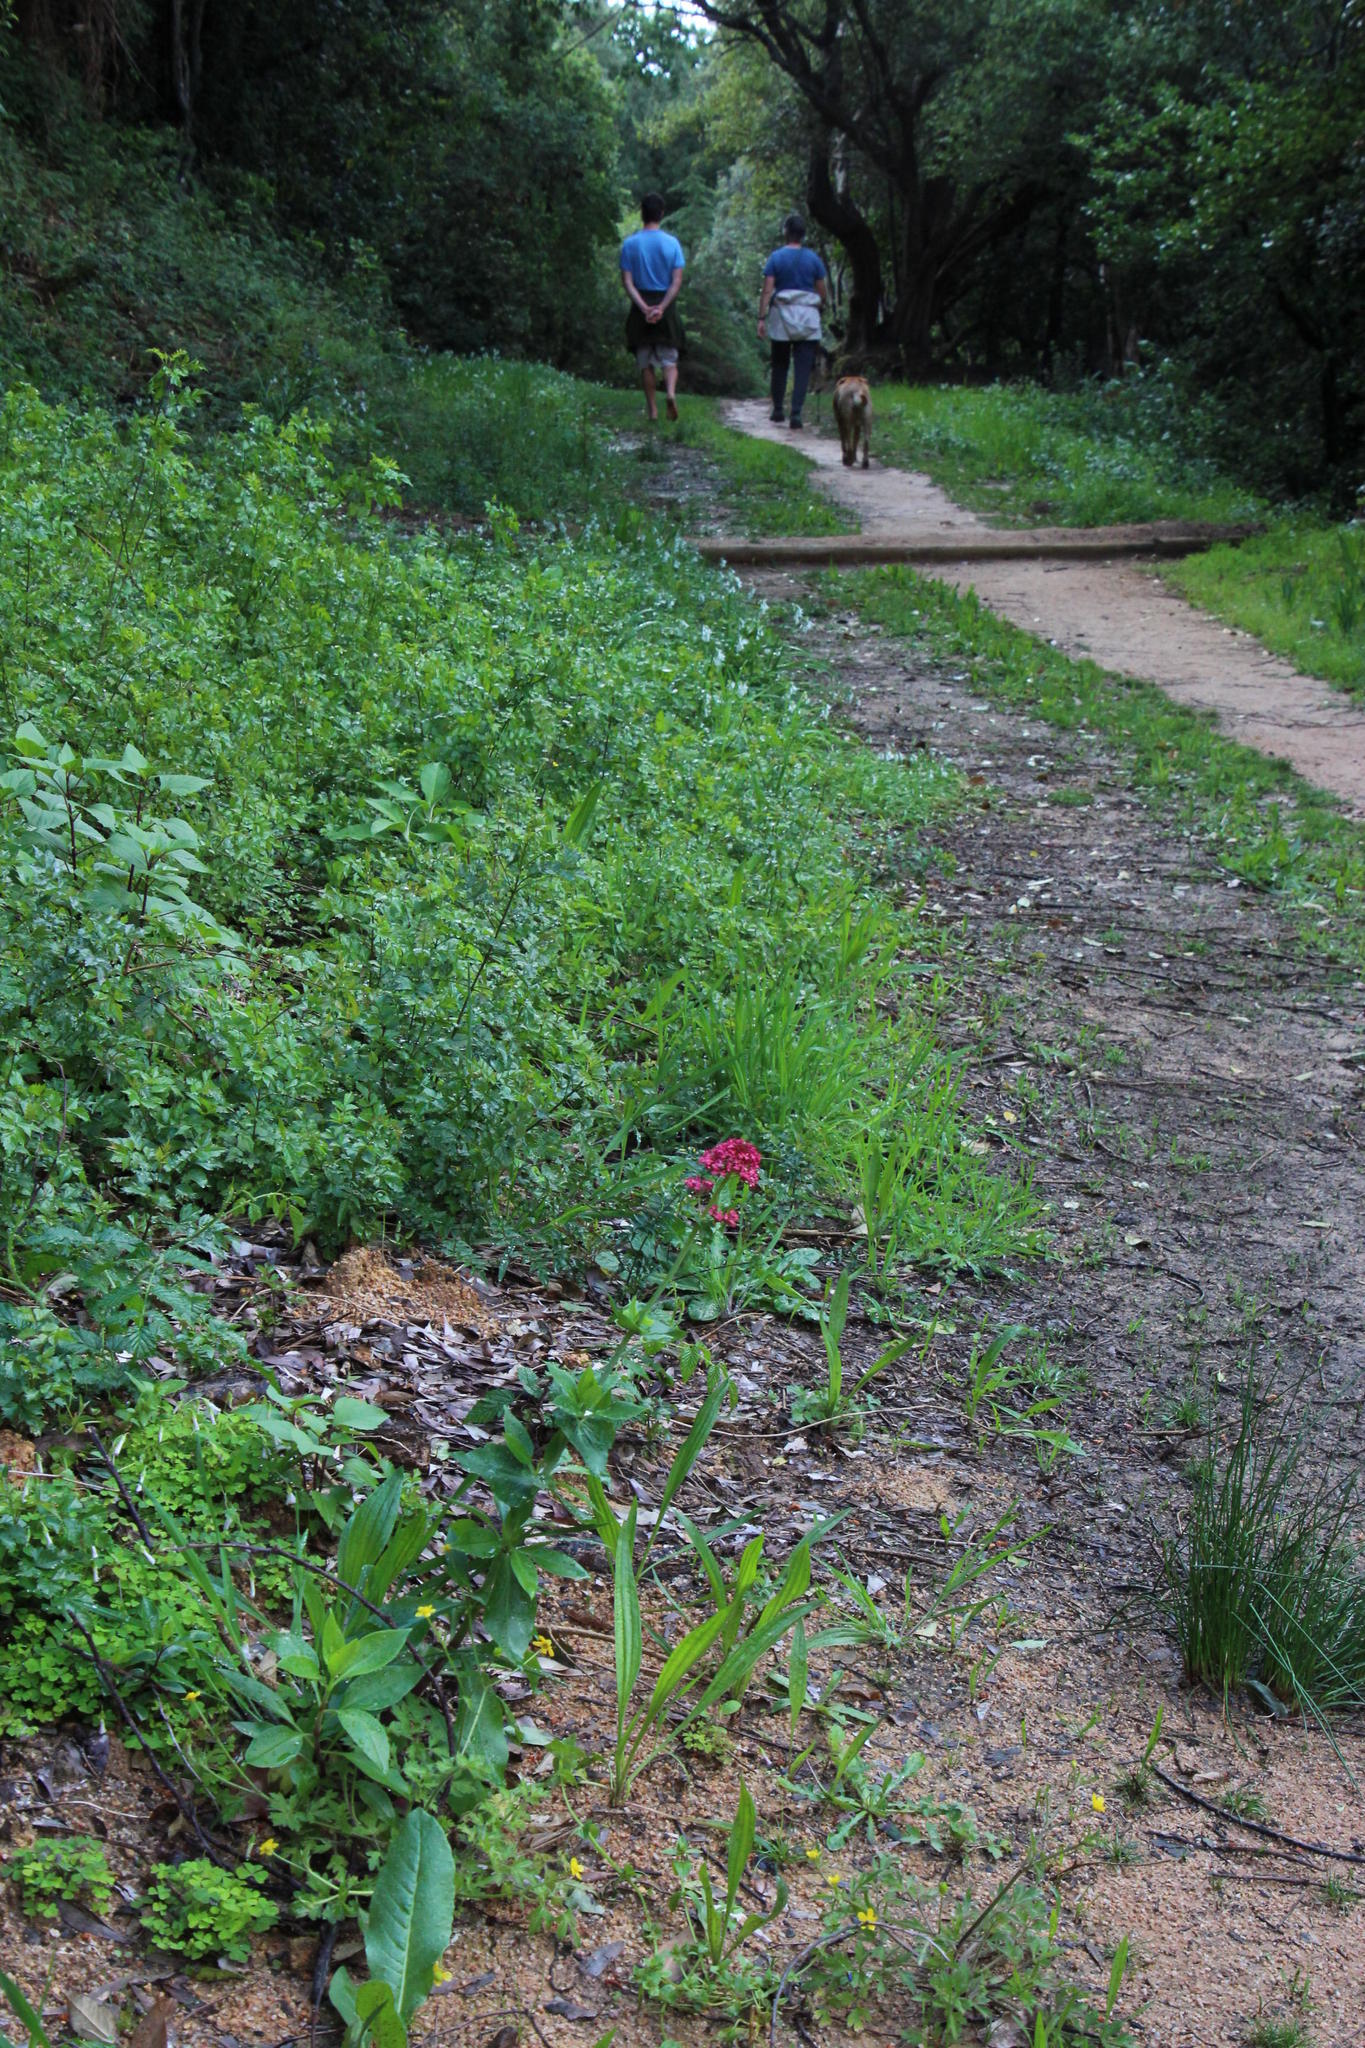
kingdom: Plantae
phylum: Tracheophyta
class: Magnoliopsida
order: Dipsacales
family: Caprifoliaceae
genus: Centranthus
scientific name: Centranthus ruber
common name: Red valerian
